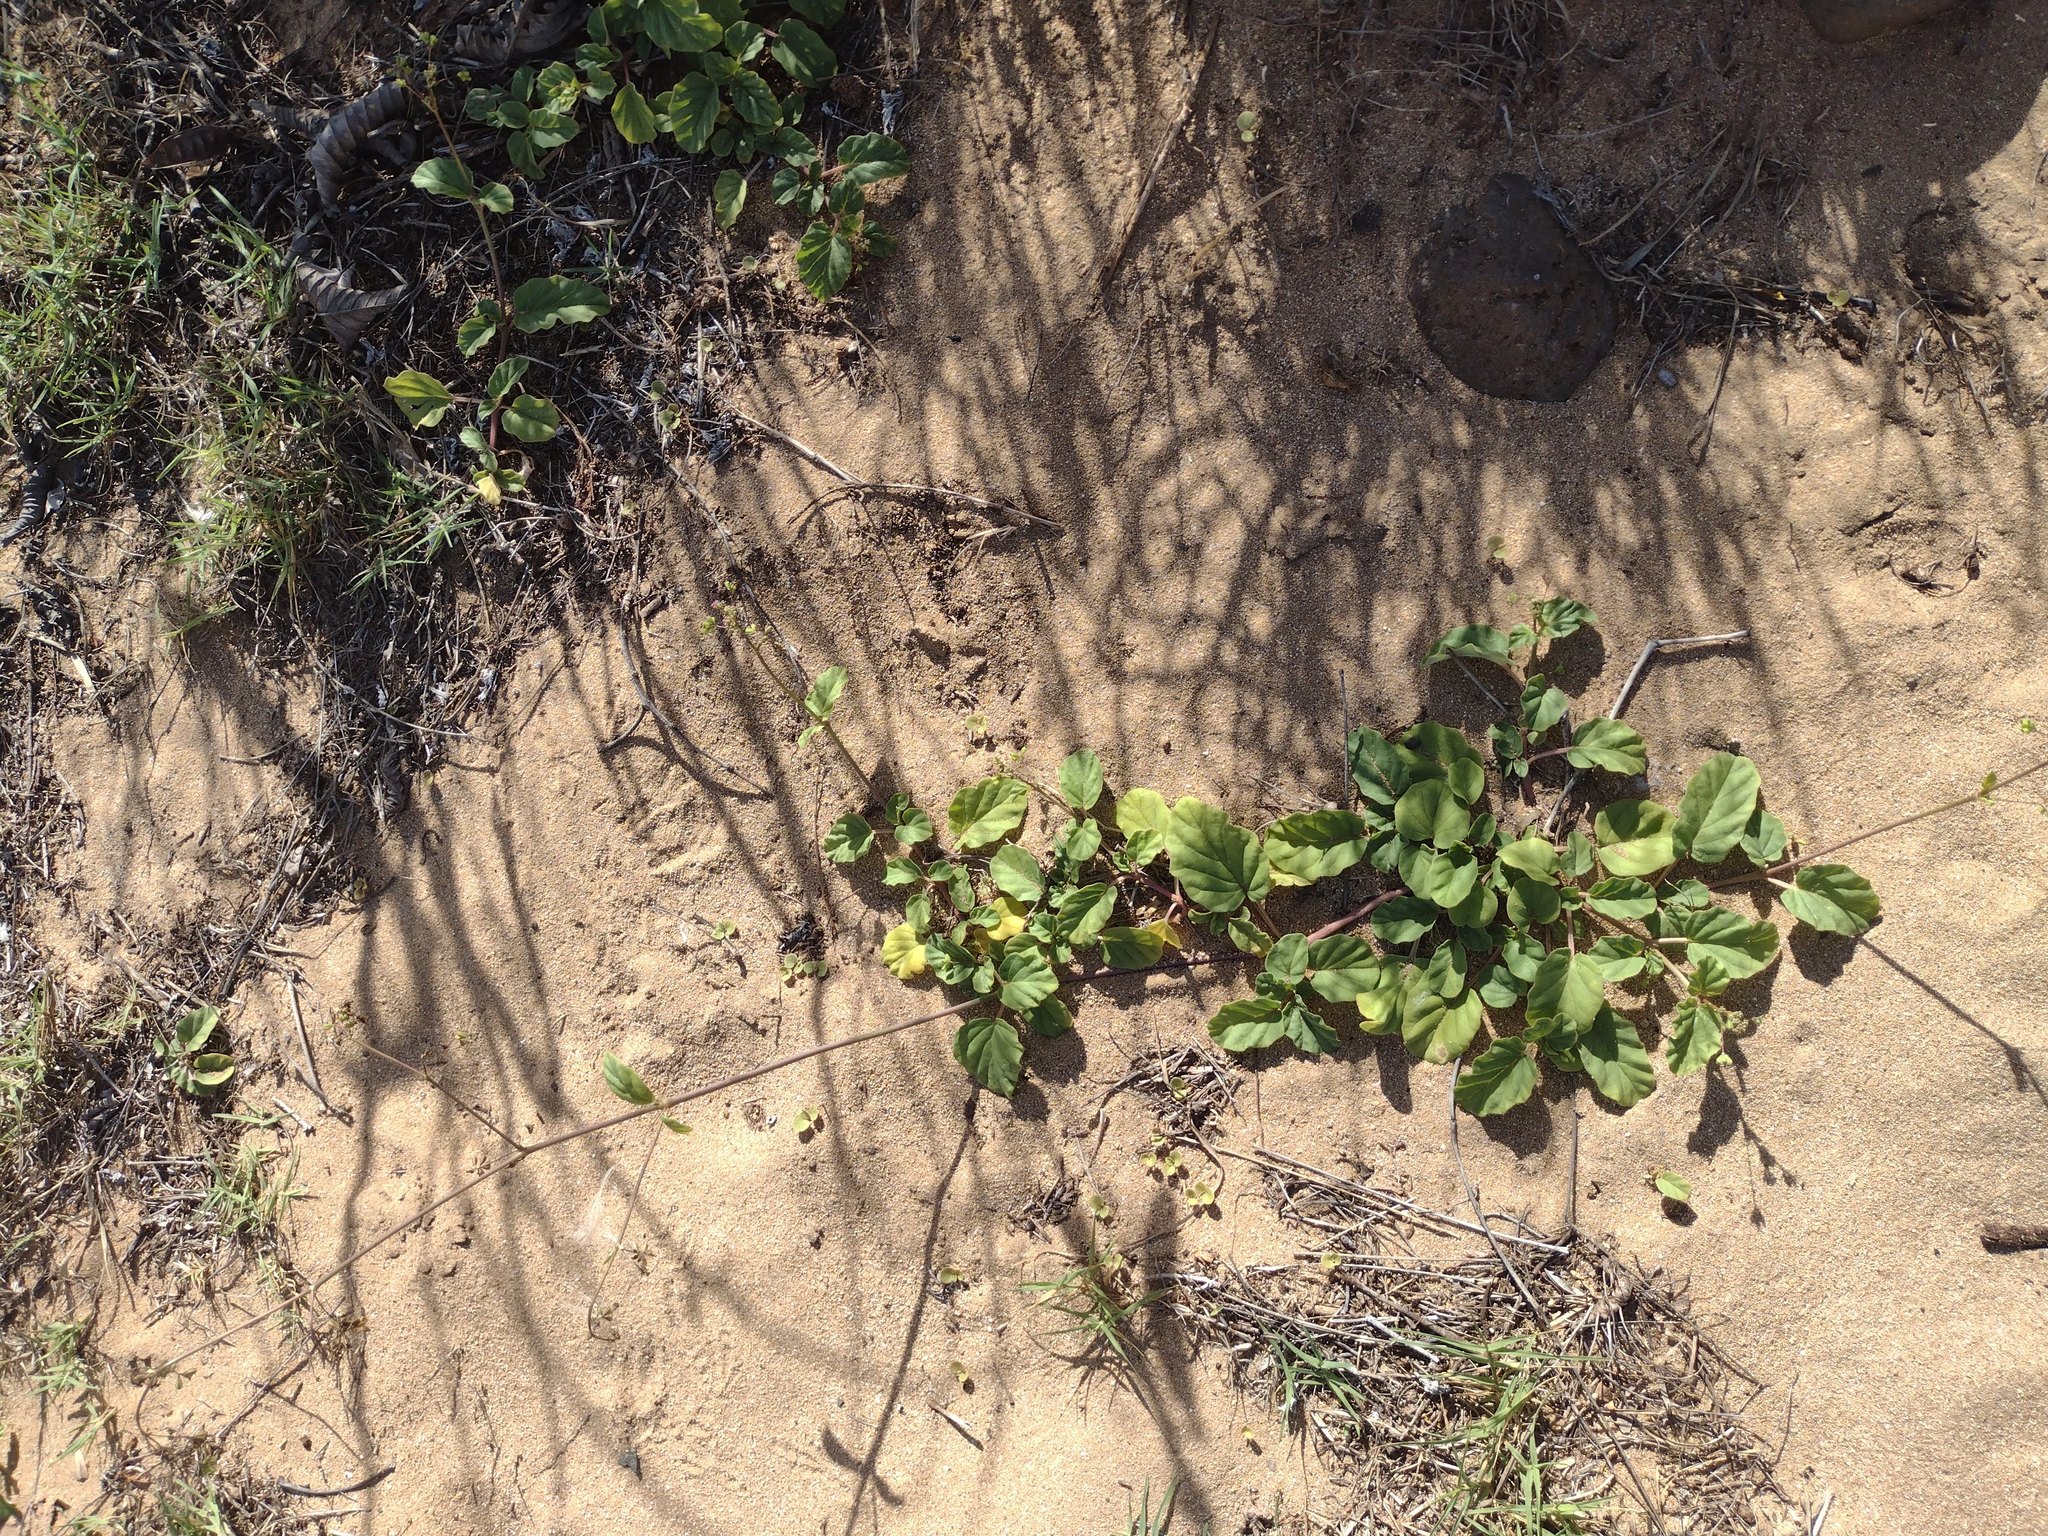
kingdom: Plantae
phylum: Tracheophyta
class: Magnoliopsida
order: Caryophyllales
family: Nyctaginaceae
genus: Boerhavia
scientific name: Boerhavia diffusa
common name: Red spiderling
